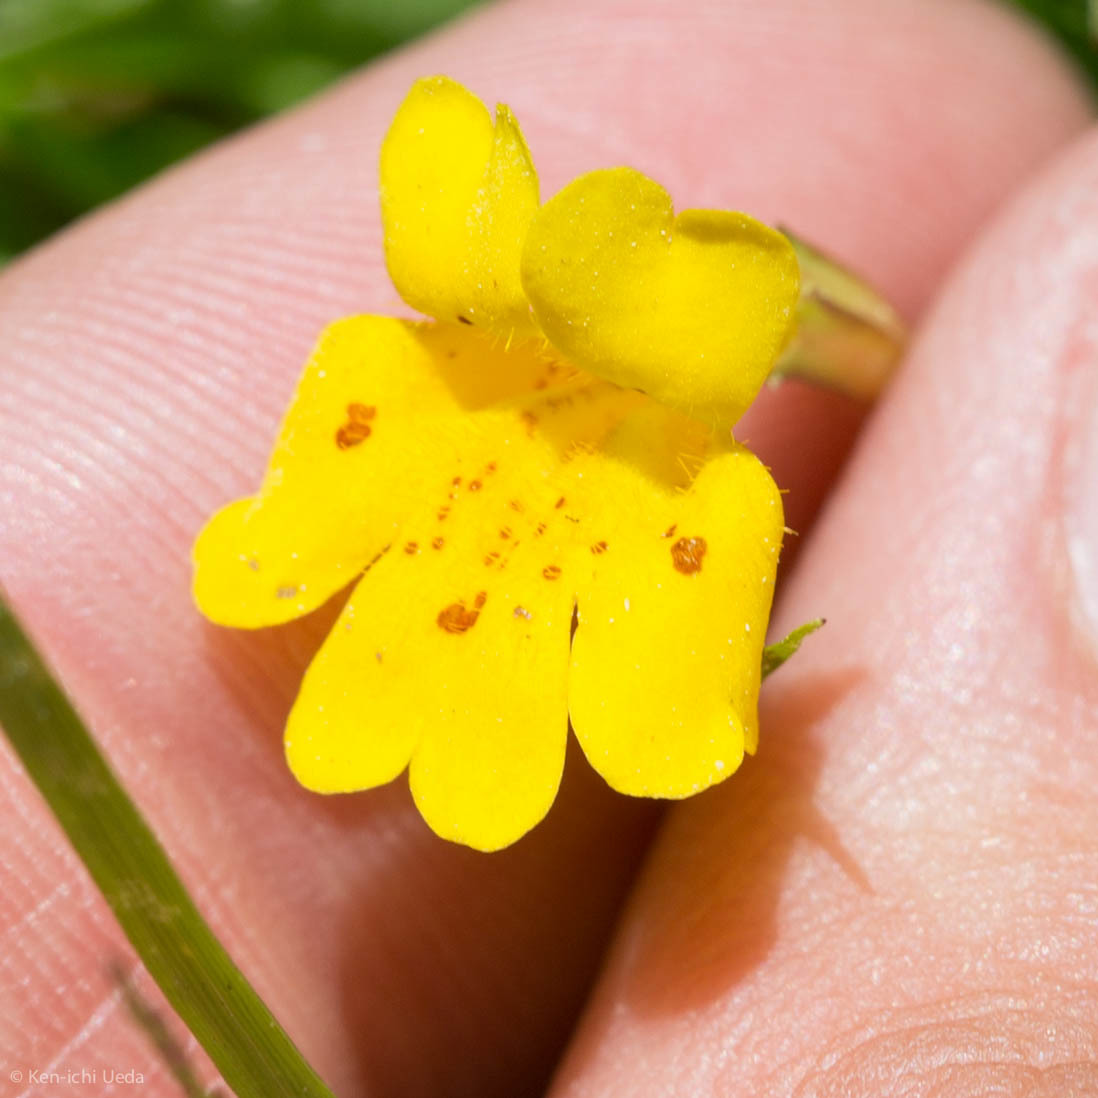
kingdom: Plantae
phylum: Tracheophyta
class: Magnoliopsida
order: Lamiales
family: Phrymaceae
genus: Erythranthe
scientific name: Erythranthe primuloides
